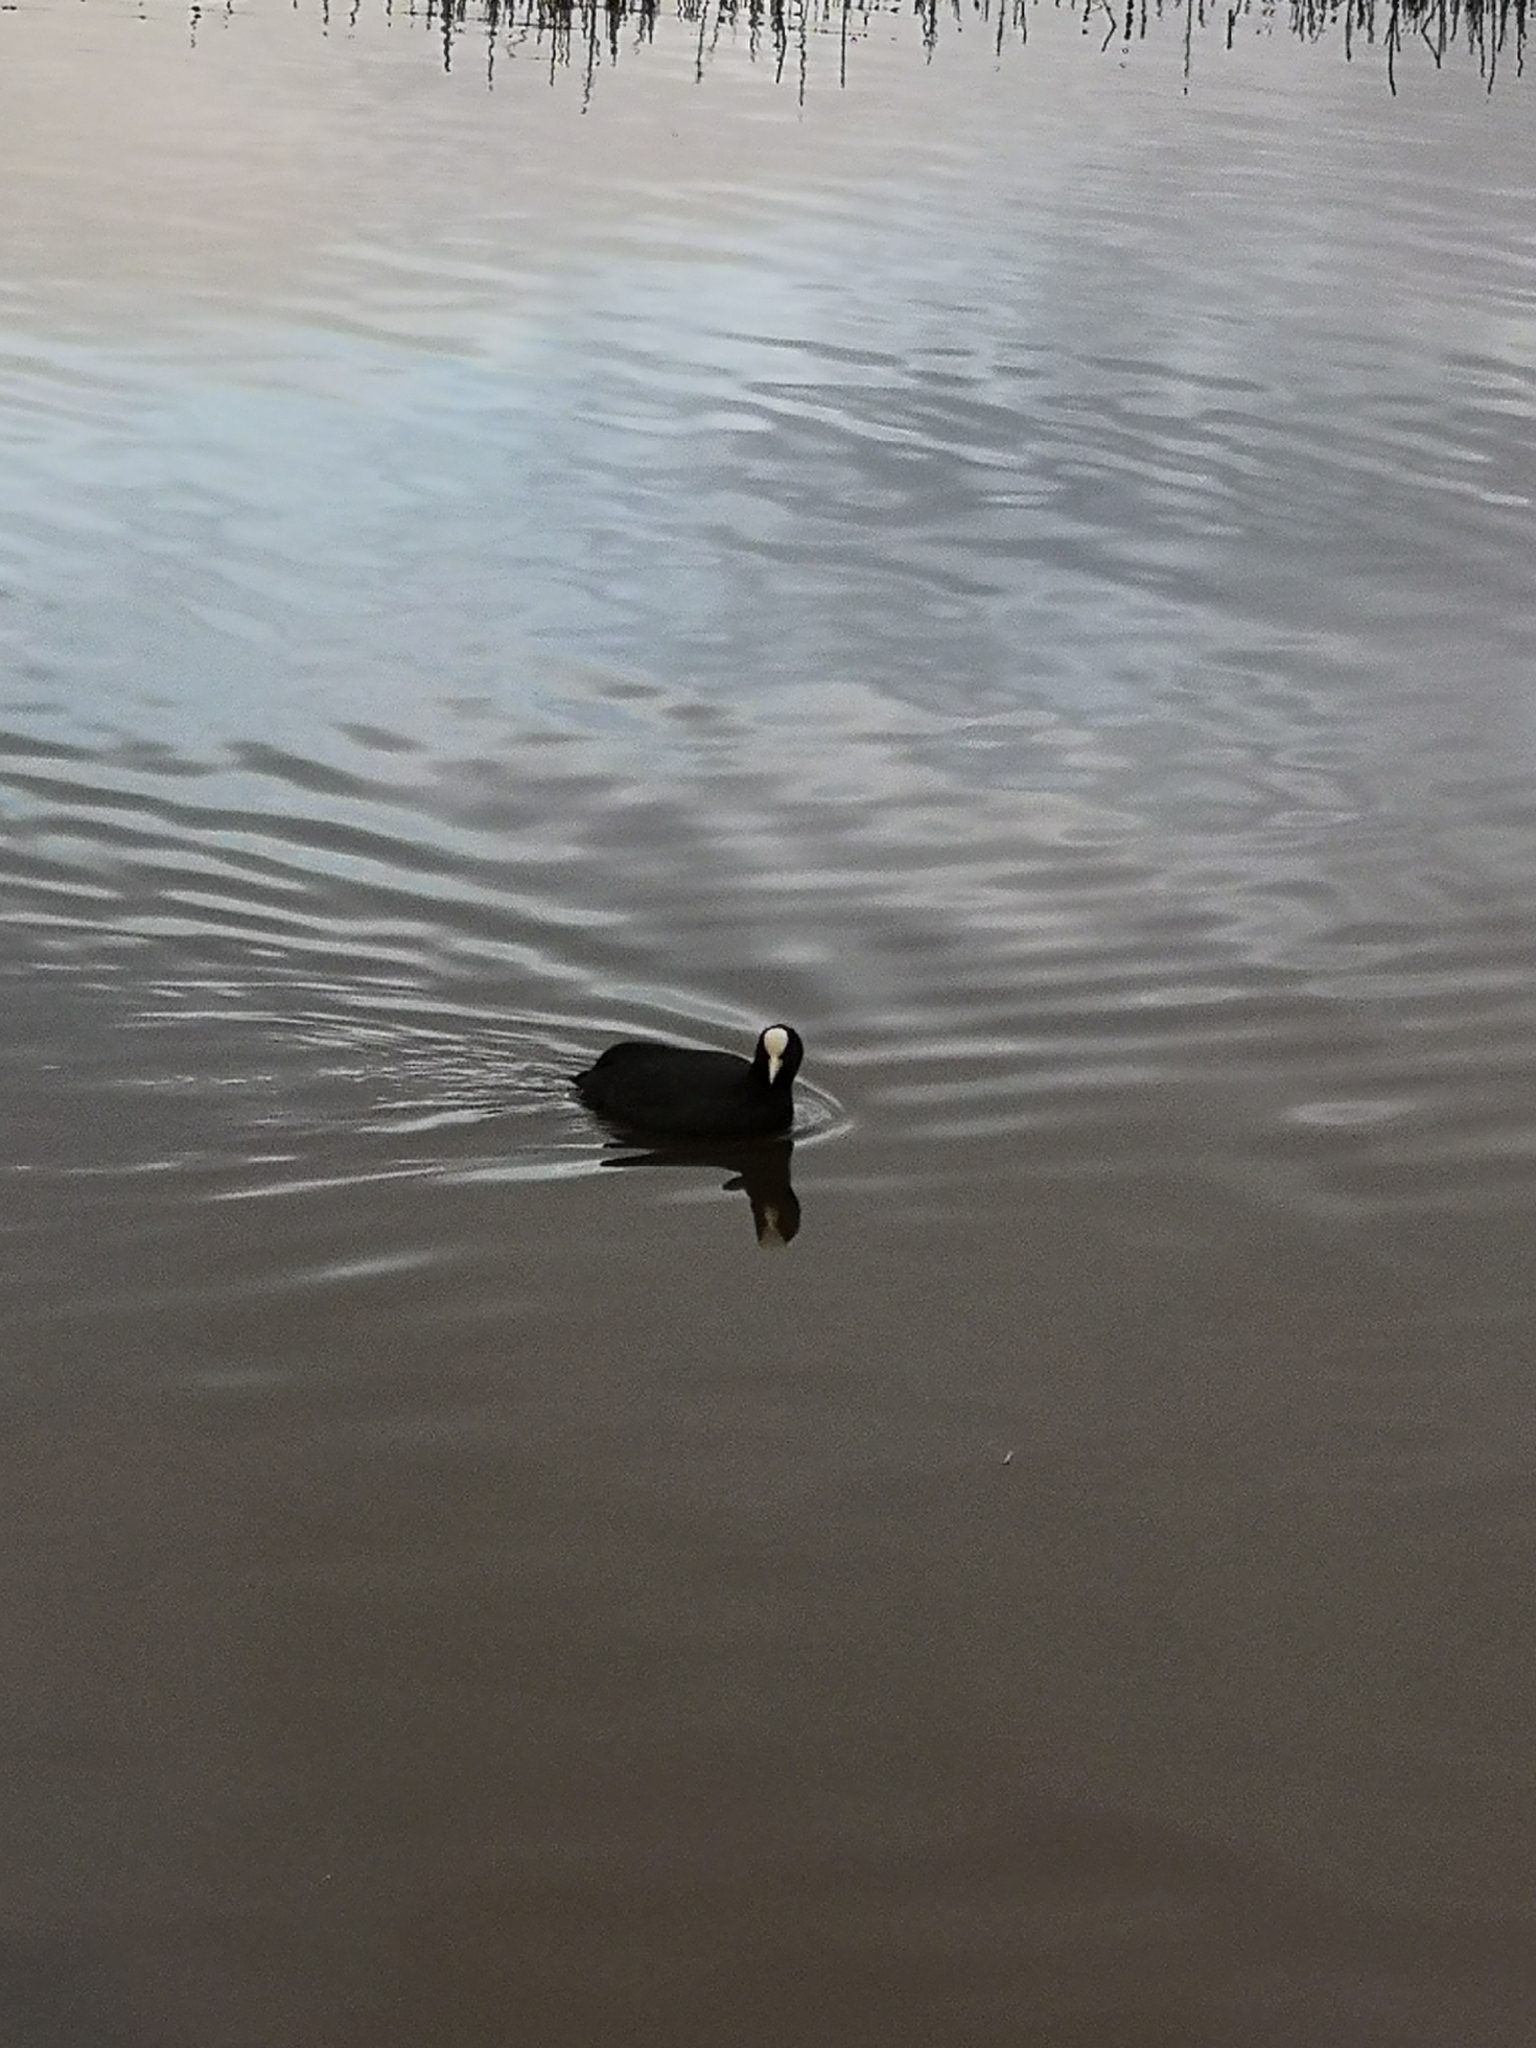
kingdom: Animalia
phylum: Chordata
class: Aves
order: Gruiformes
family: Rallidae
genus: Fulica
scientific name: Fulica atra
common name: Eurasian coot
